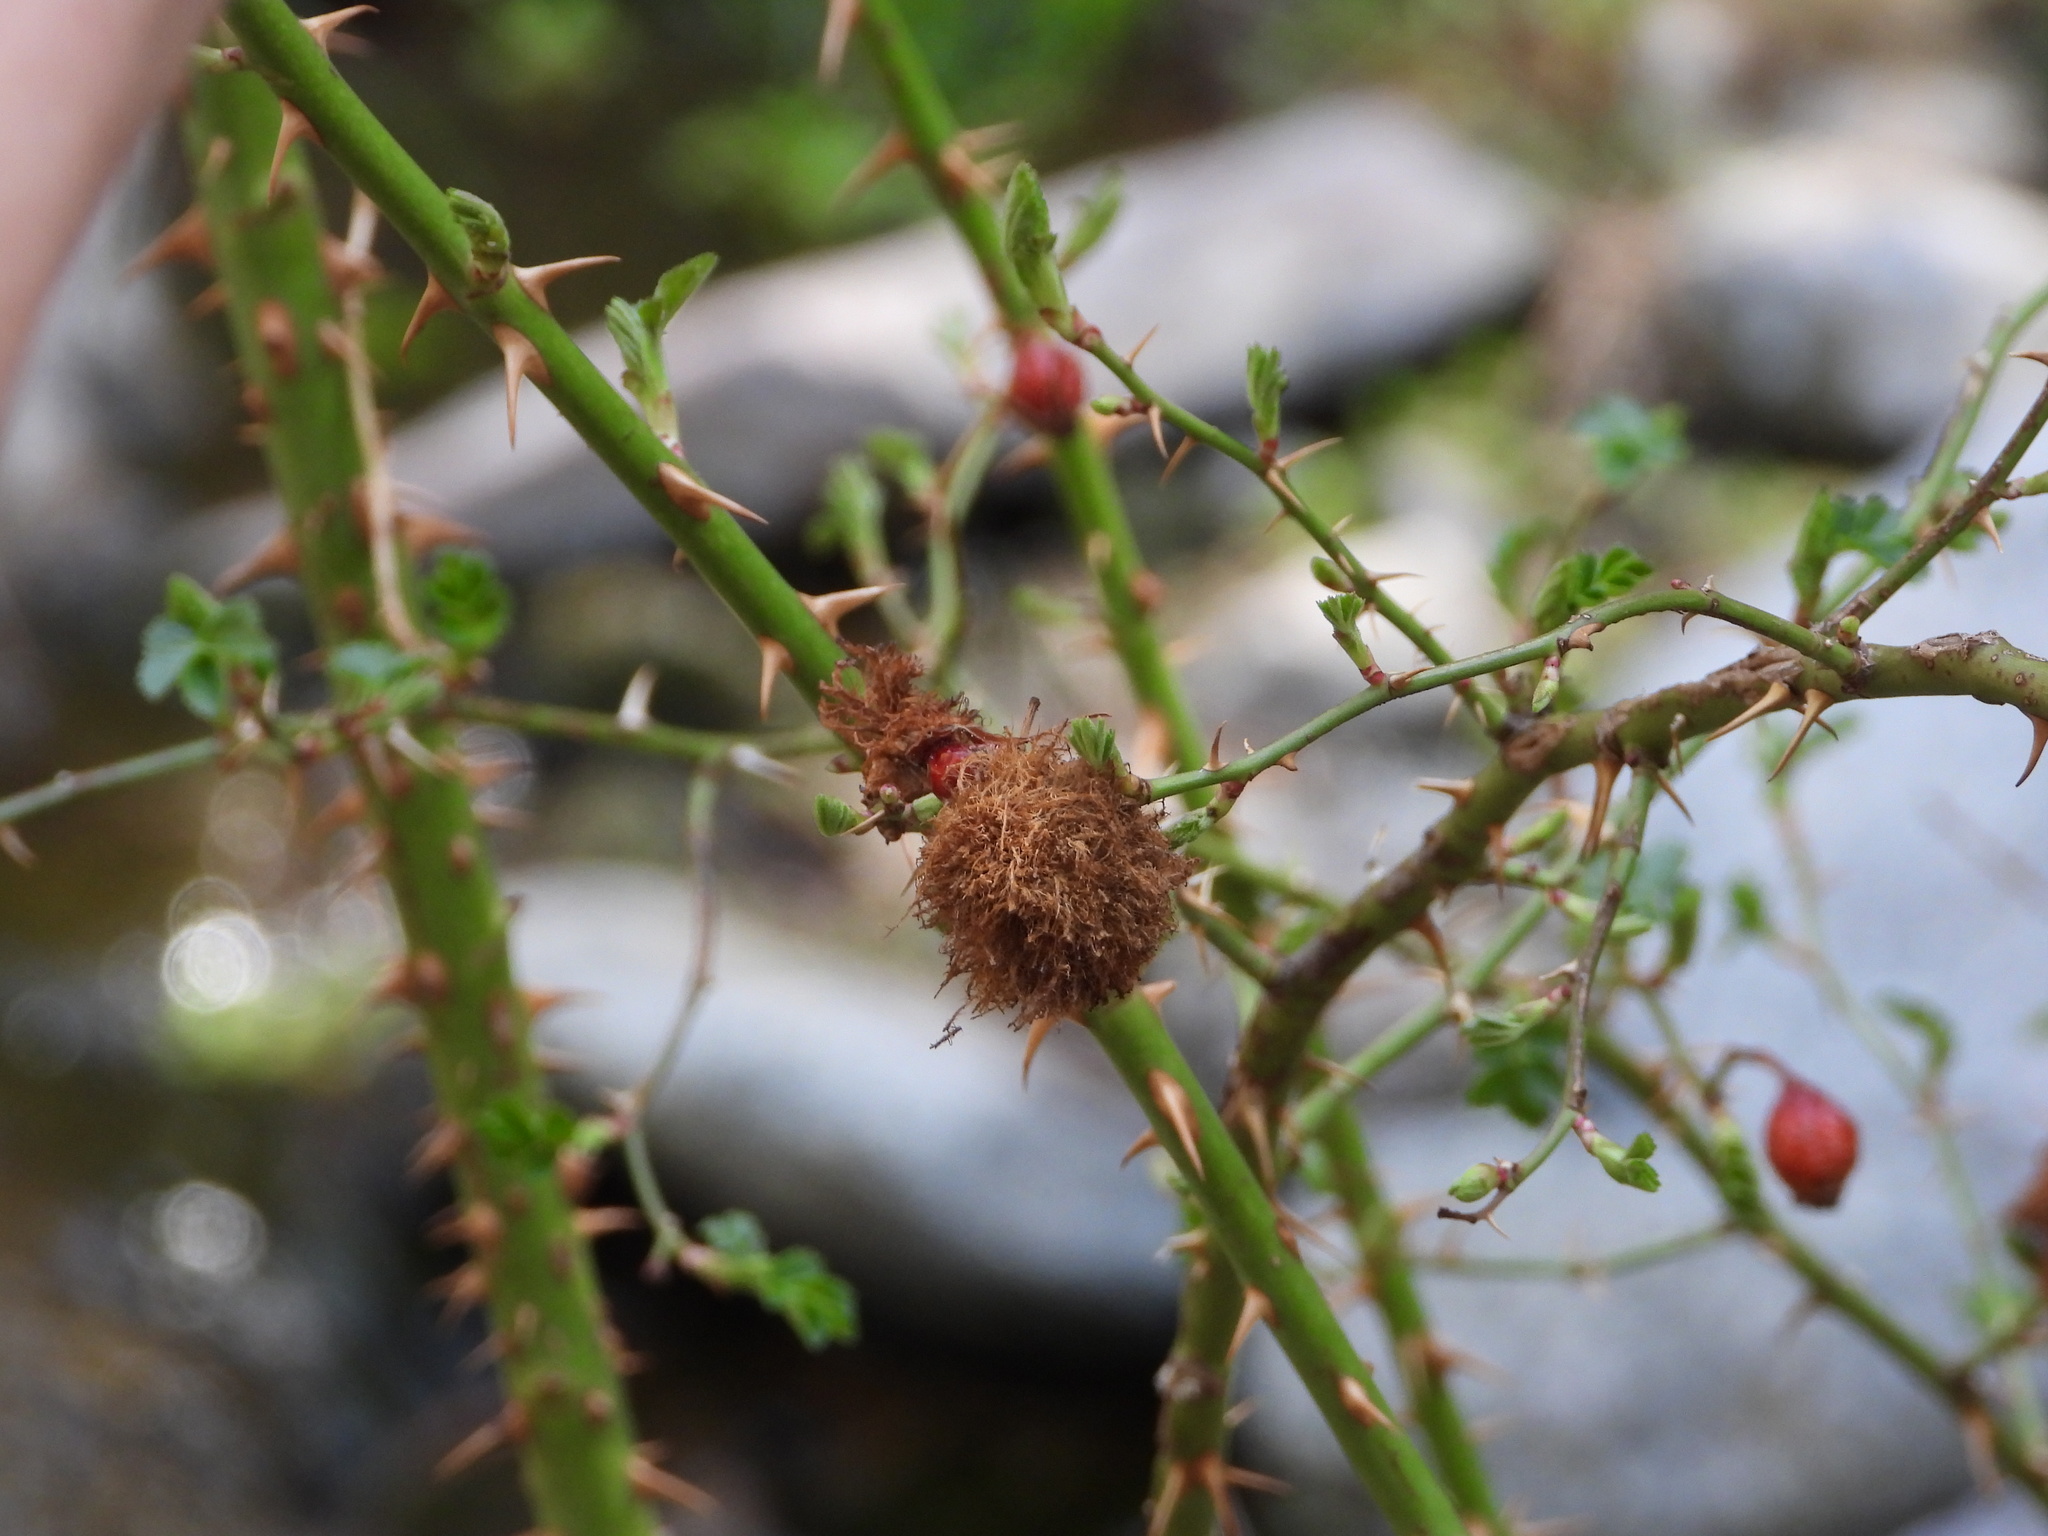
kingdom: Animalia
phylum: Arthropoda
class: Insecta
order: Hymenoptera
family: Cynipidae
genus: Diplolepis
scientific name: Diplolepis rosae
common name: Bedeguar gall
